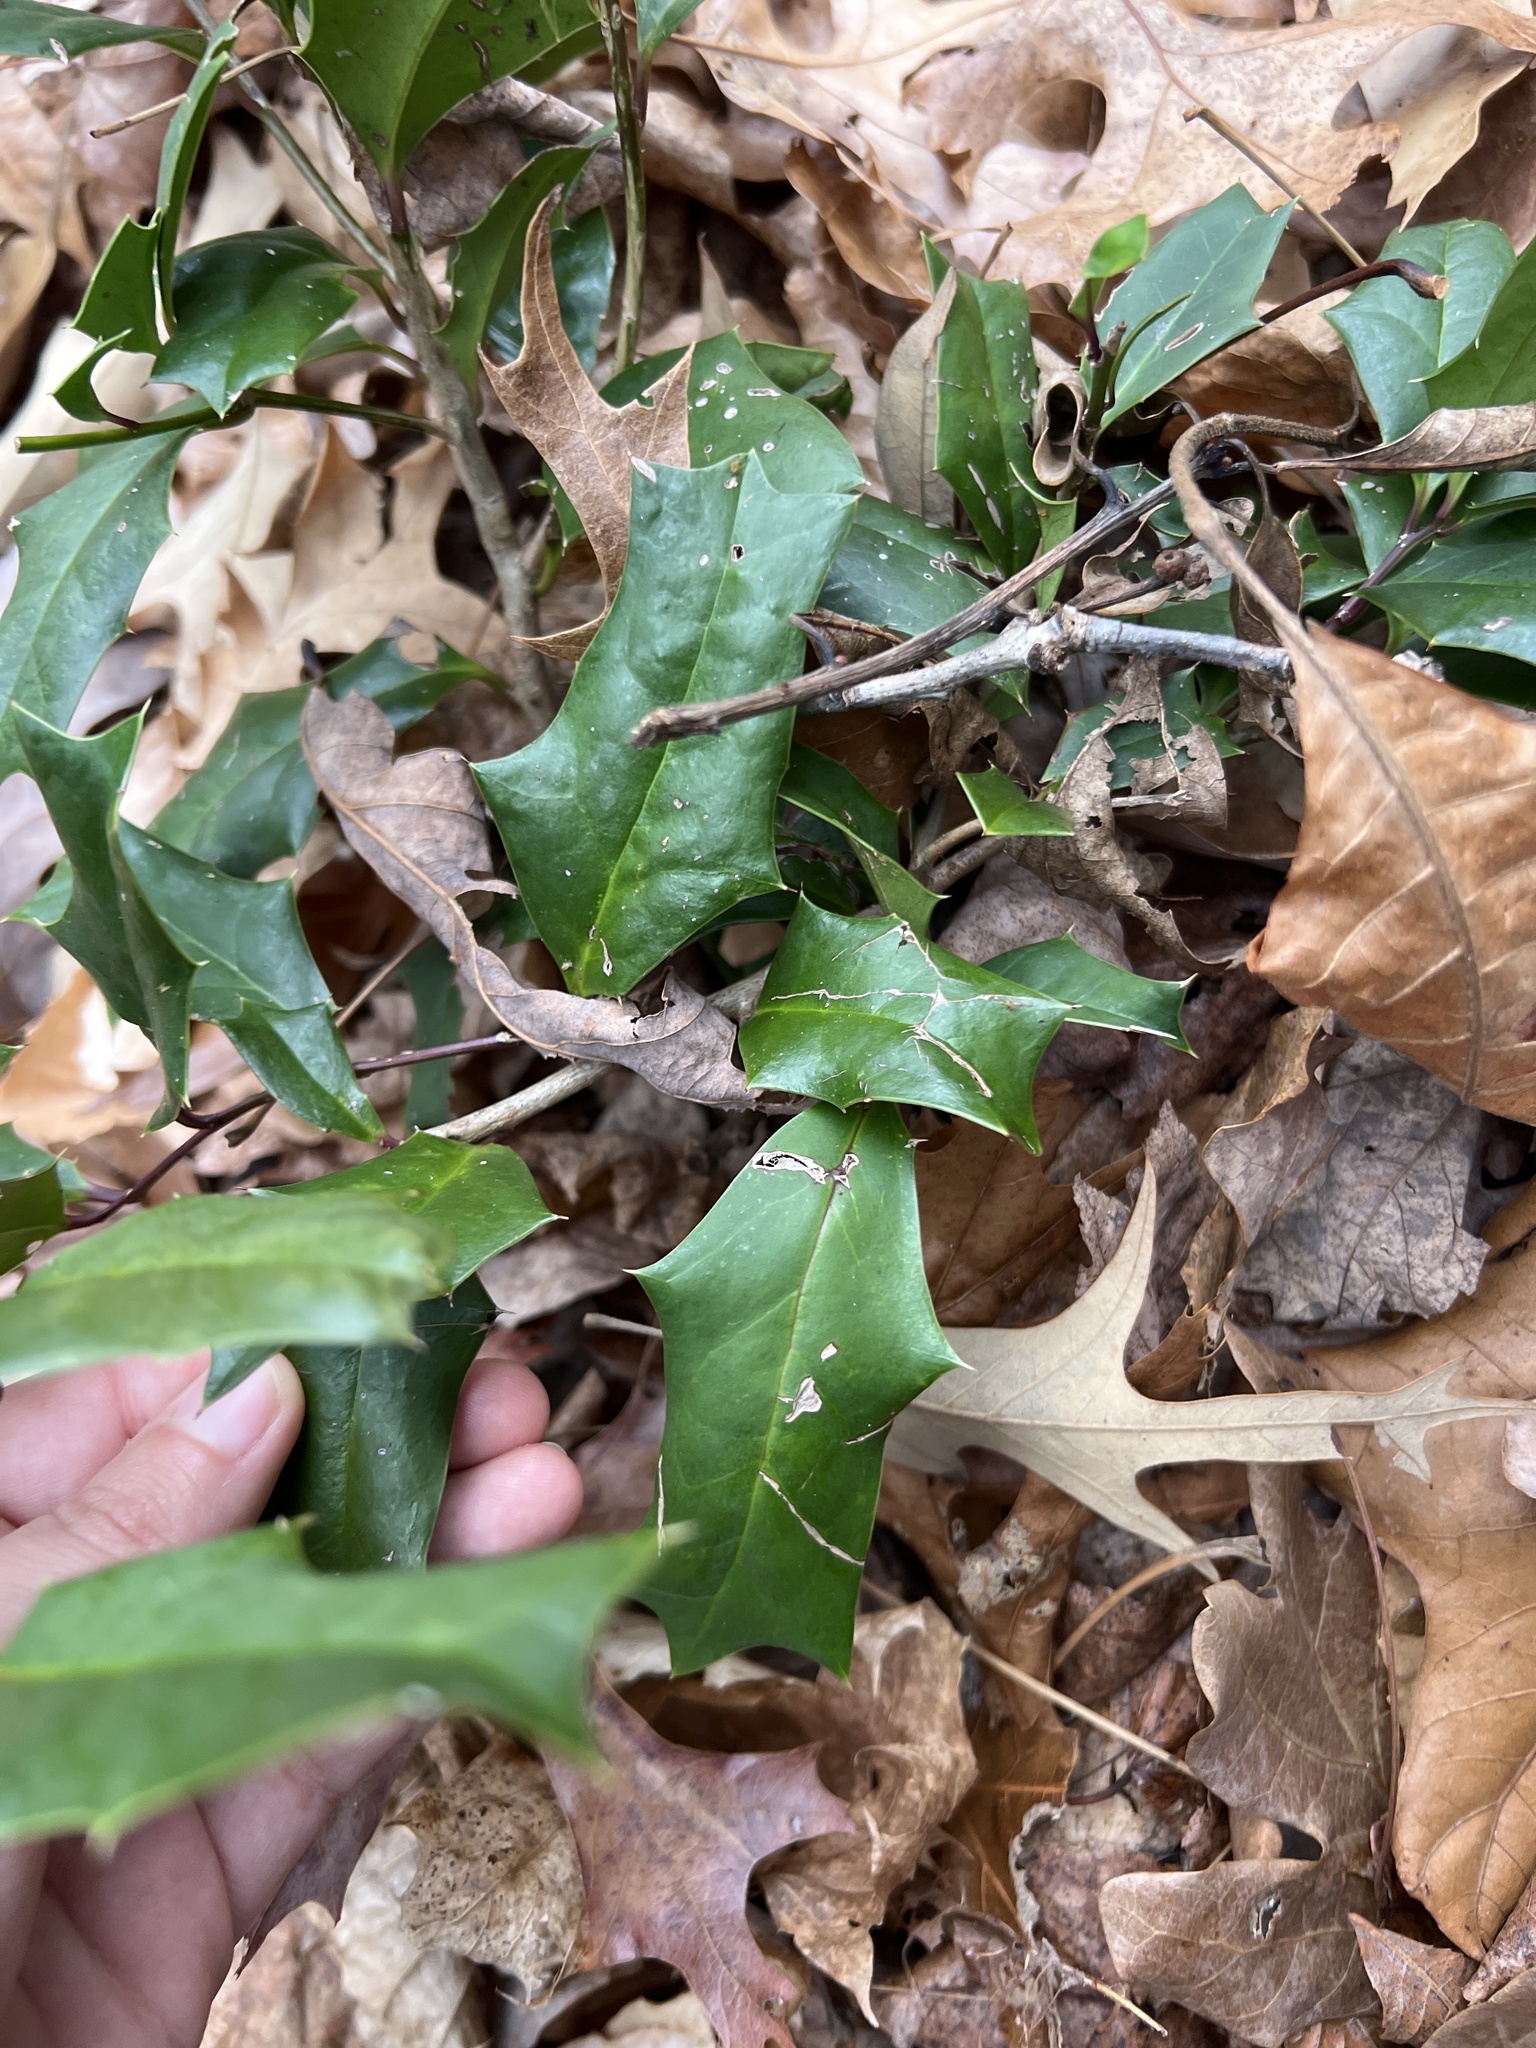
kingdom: Plantae
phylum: Tracheophyta
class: Magnoliopsida
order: Aquifoliales
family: Aquifoliaceae
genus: Ilex
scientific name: Ilex cornuta
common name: Chinese holly
